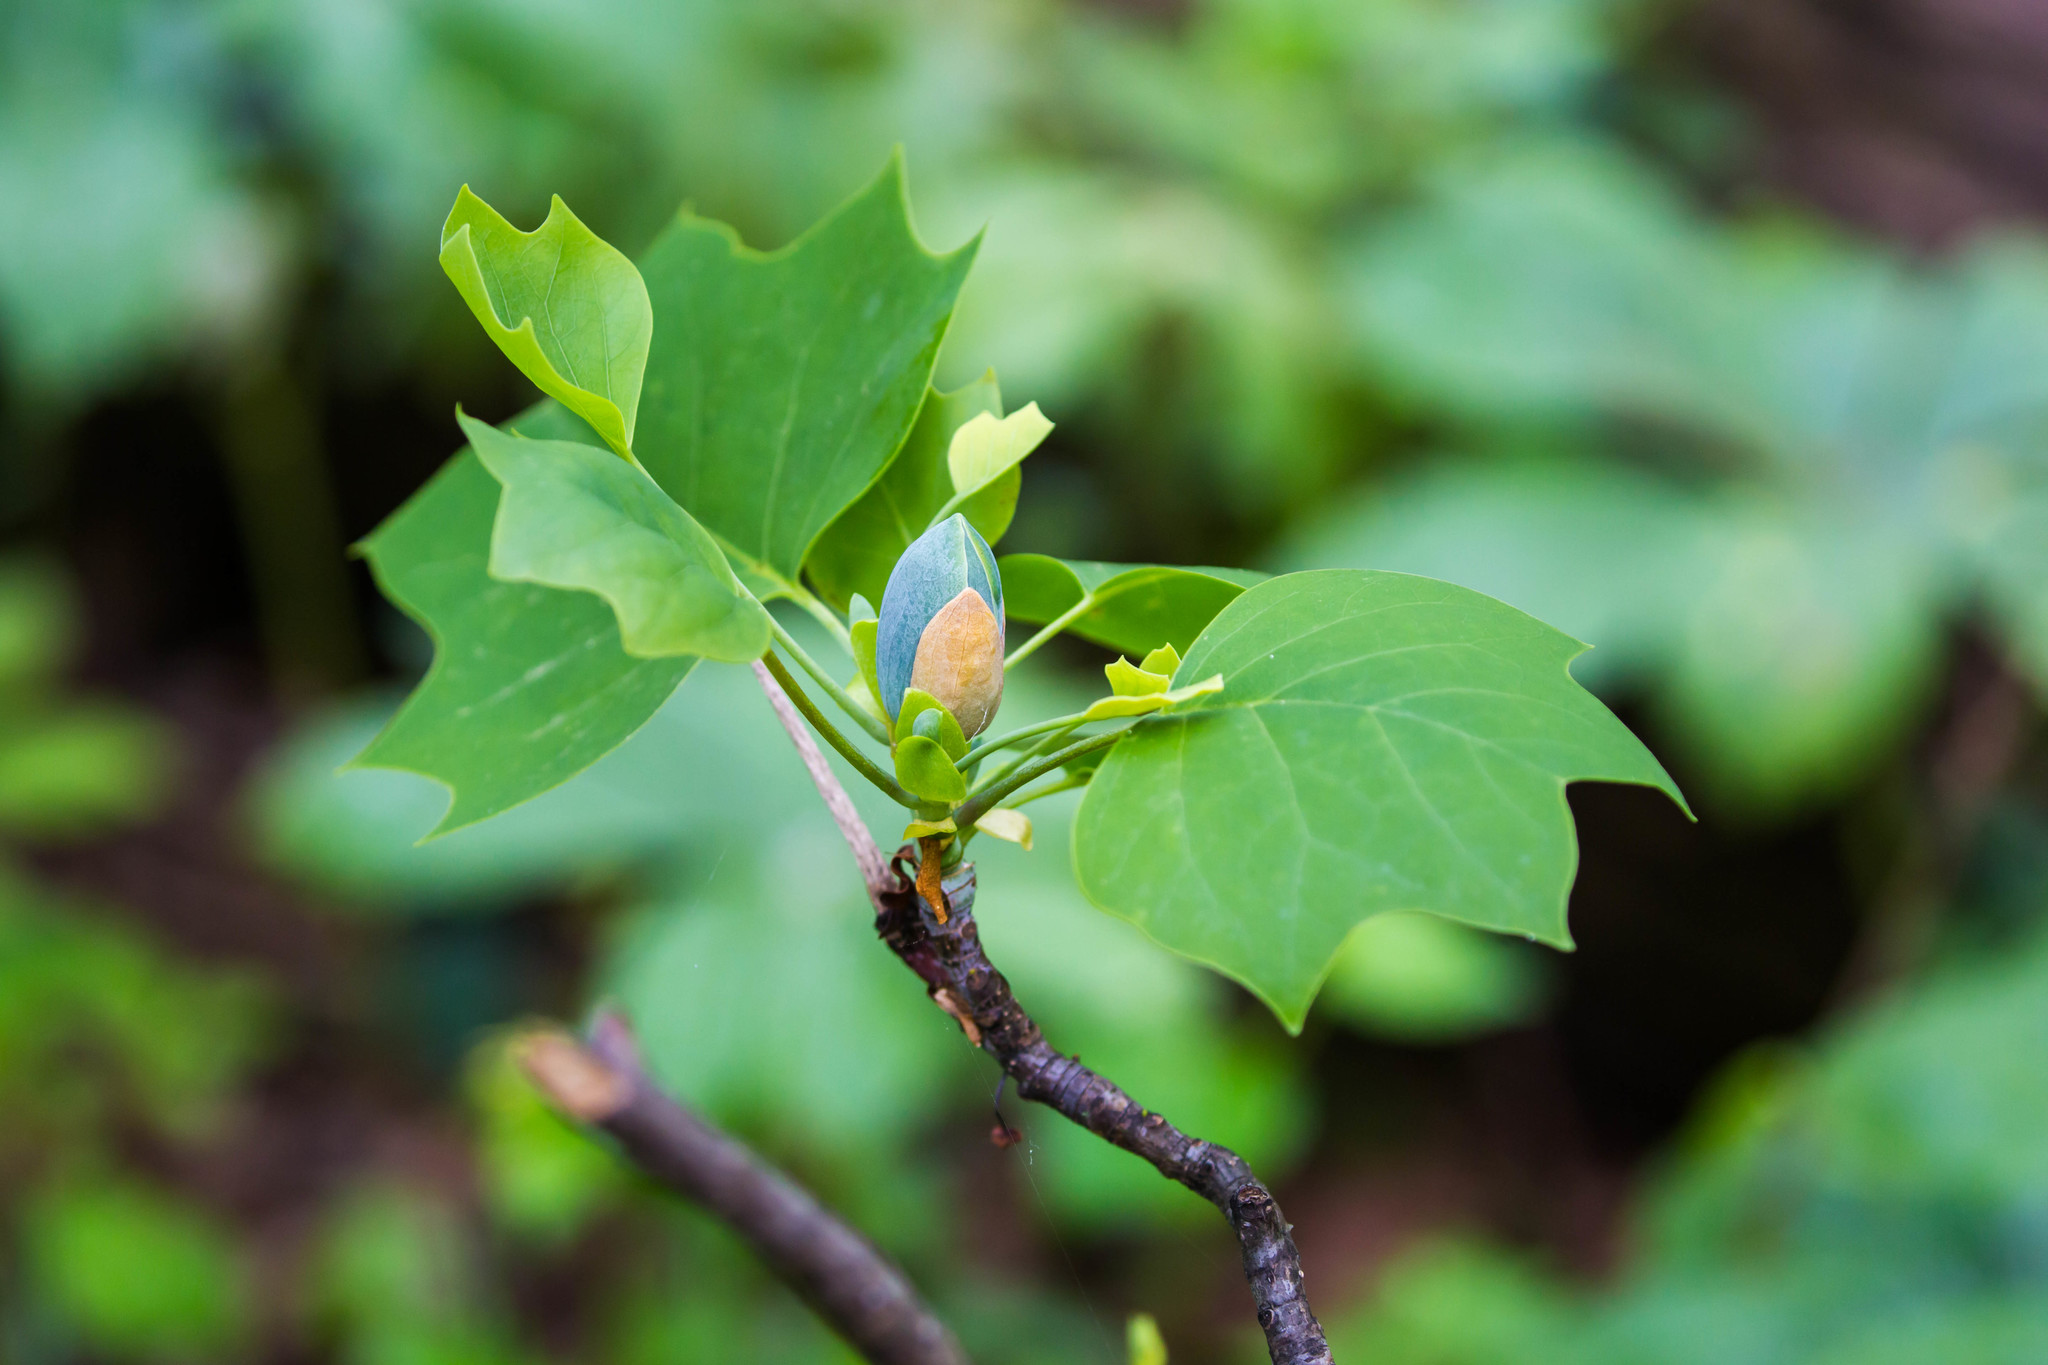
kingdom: Plantae
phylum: Tracheophyta
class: Magnoliopsida
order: Magnoliales
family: Magnoliaceae
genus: Liriodendron
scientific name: Liriodendron tulipifera
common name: Tulip tree
